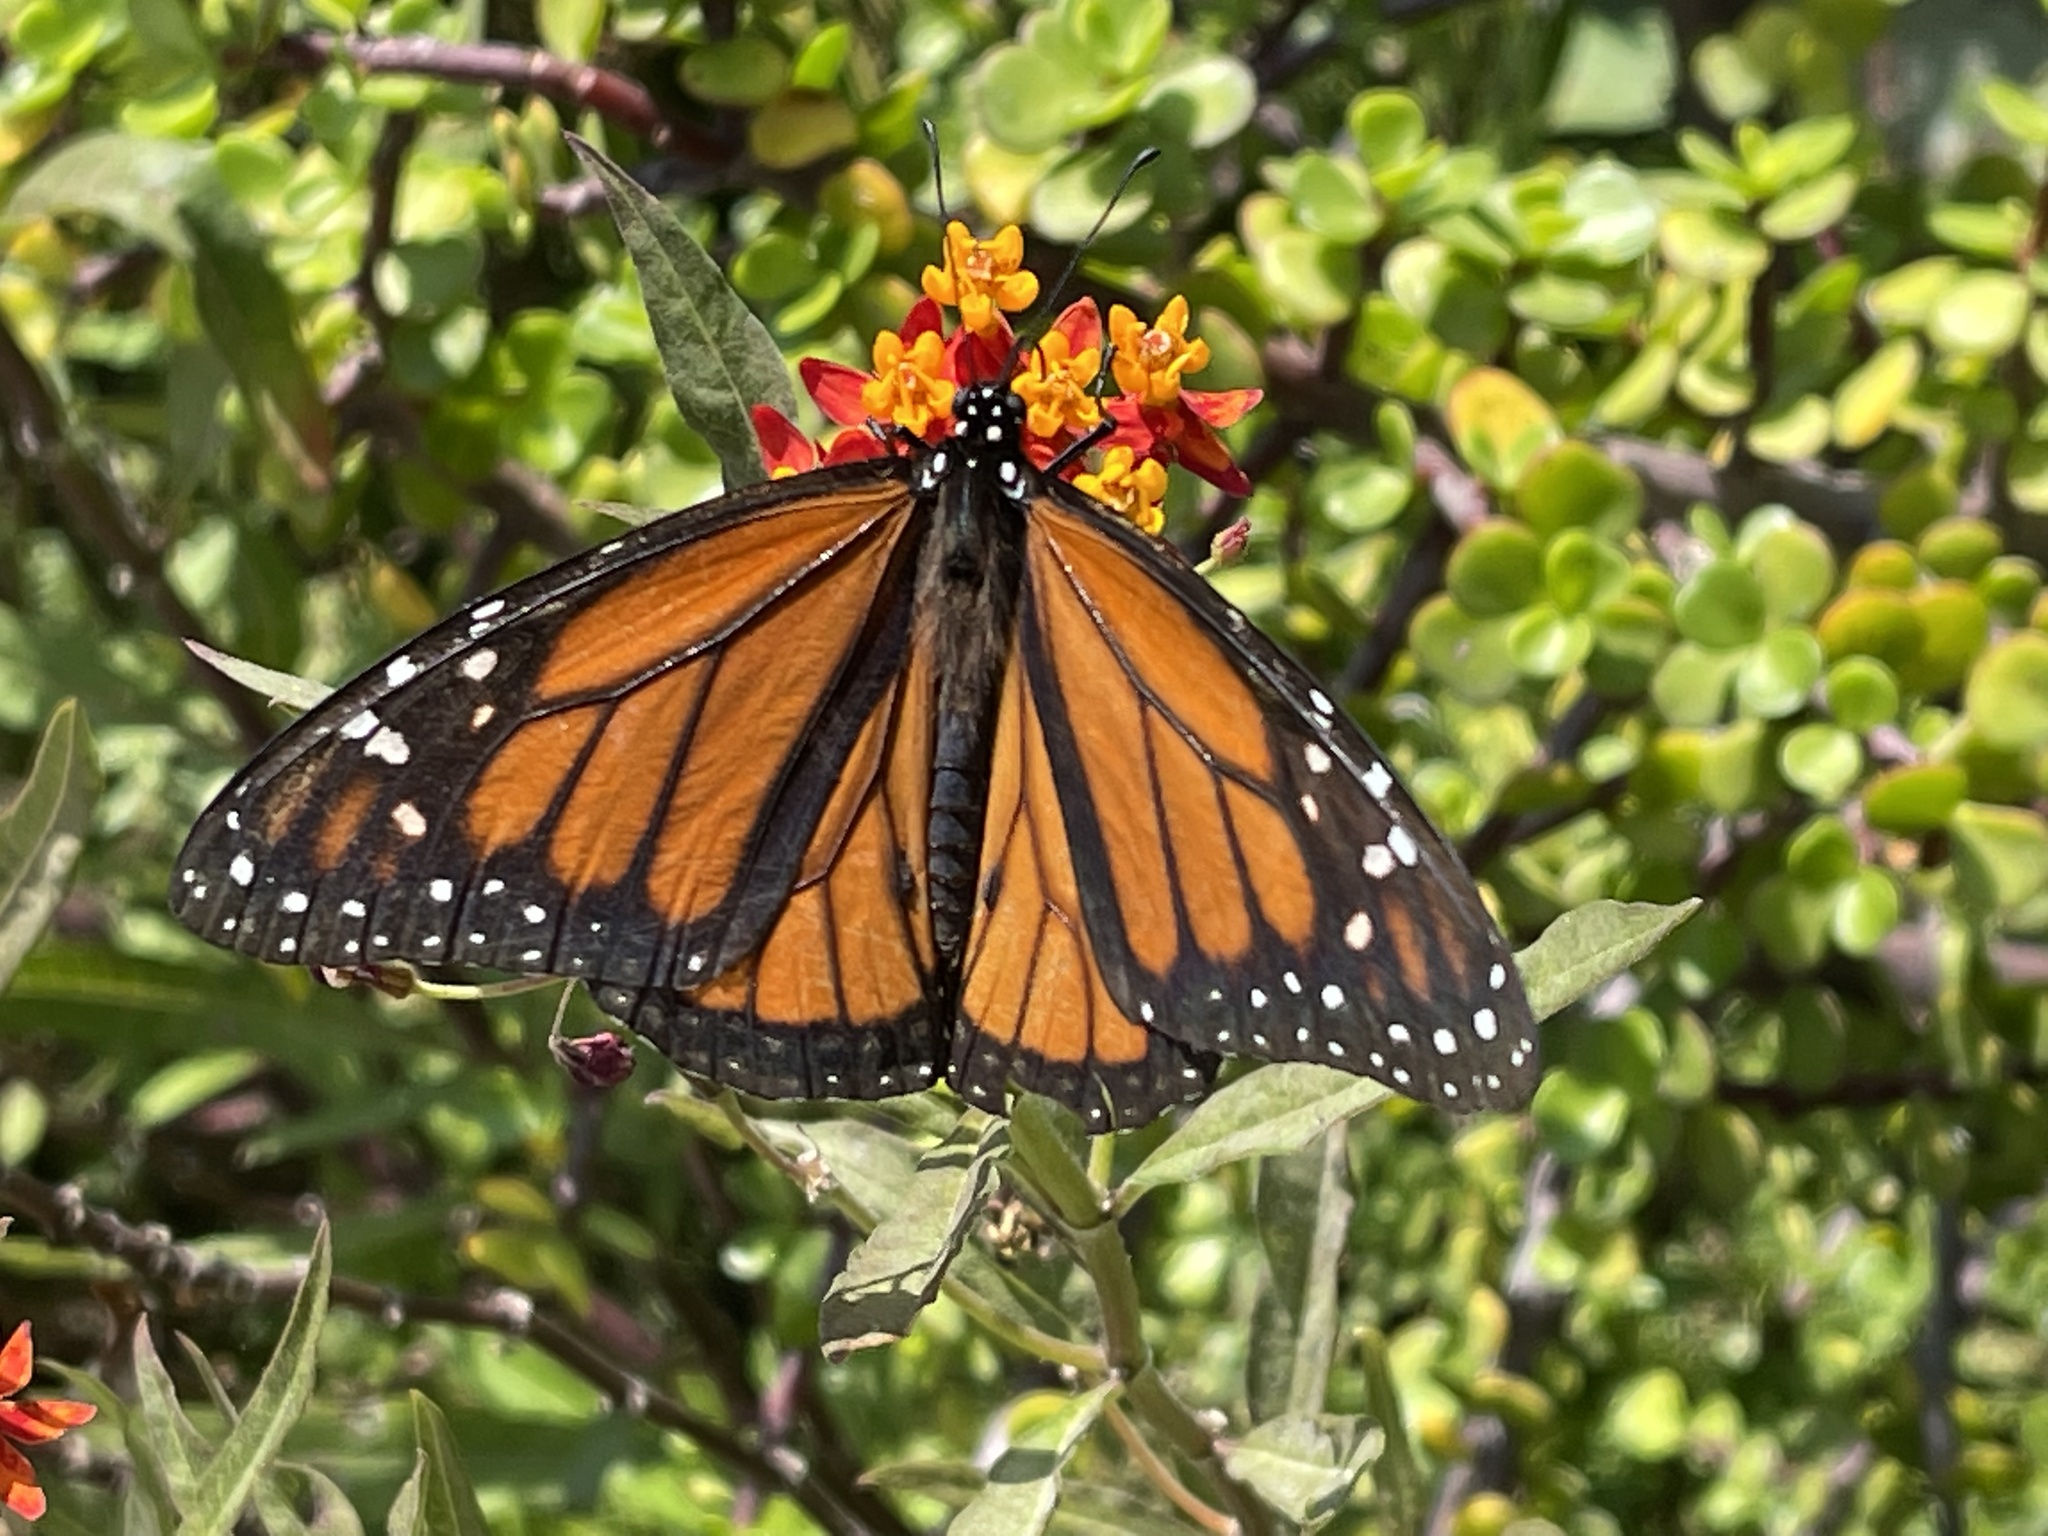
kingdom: Animalia
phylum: Arthropoda
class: Insecta
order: Lepidoptera
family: Nymphalidae
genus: Danaus
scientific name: Danaus plexippus
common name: Monarch
